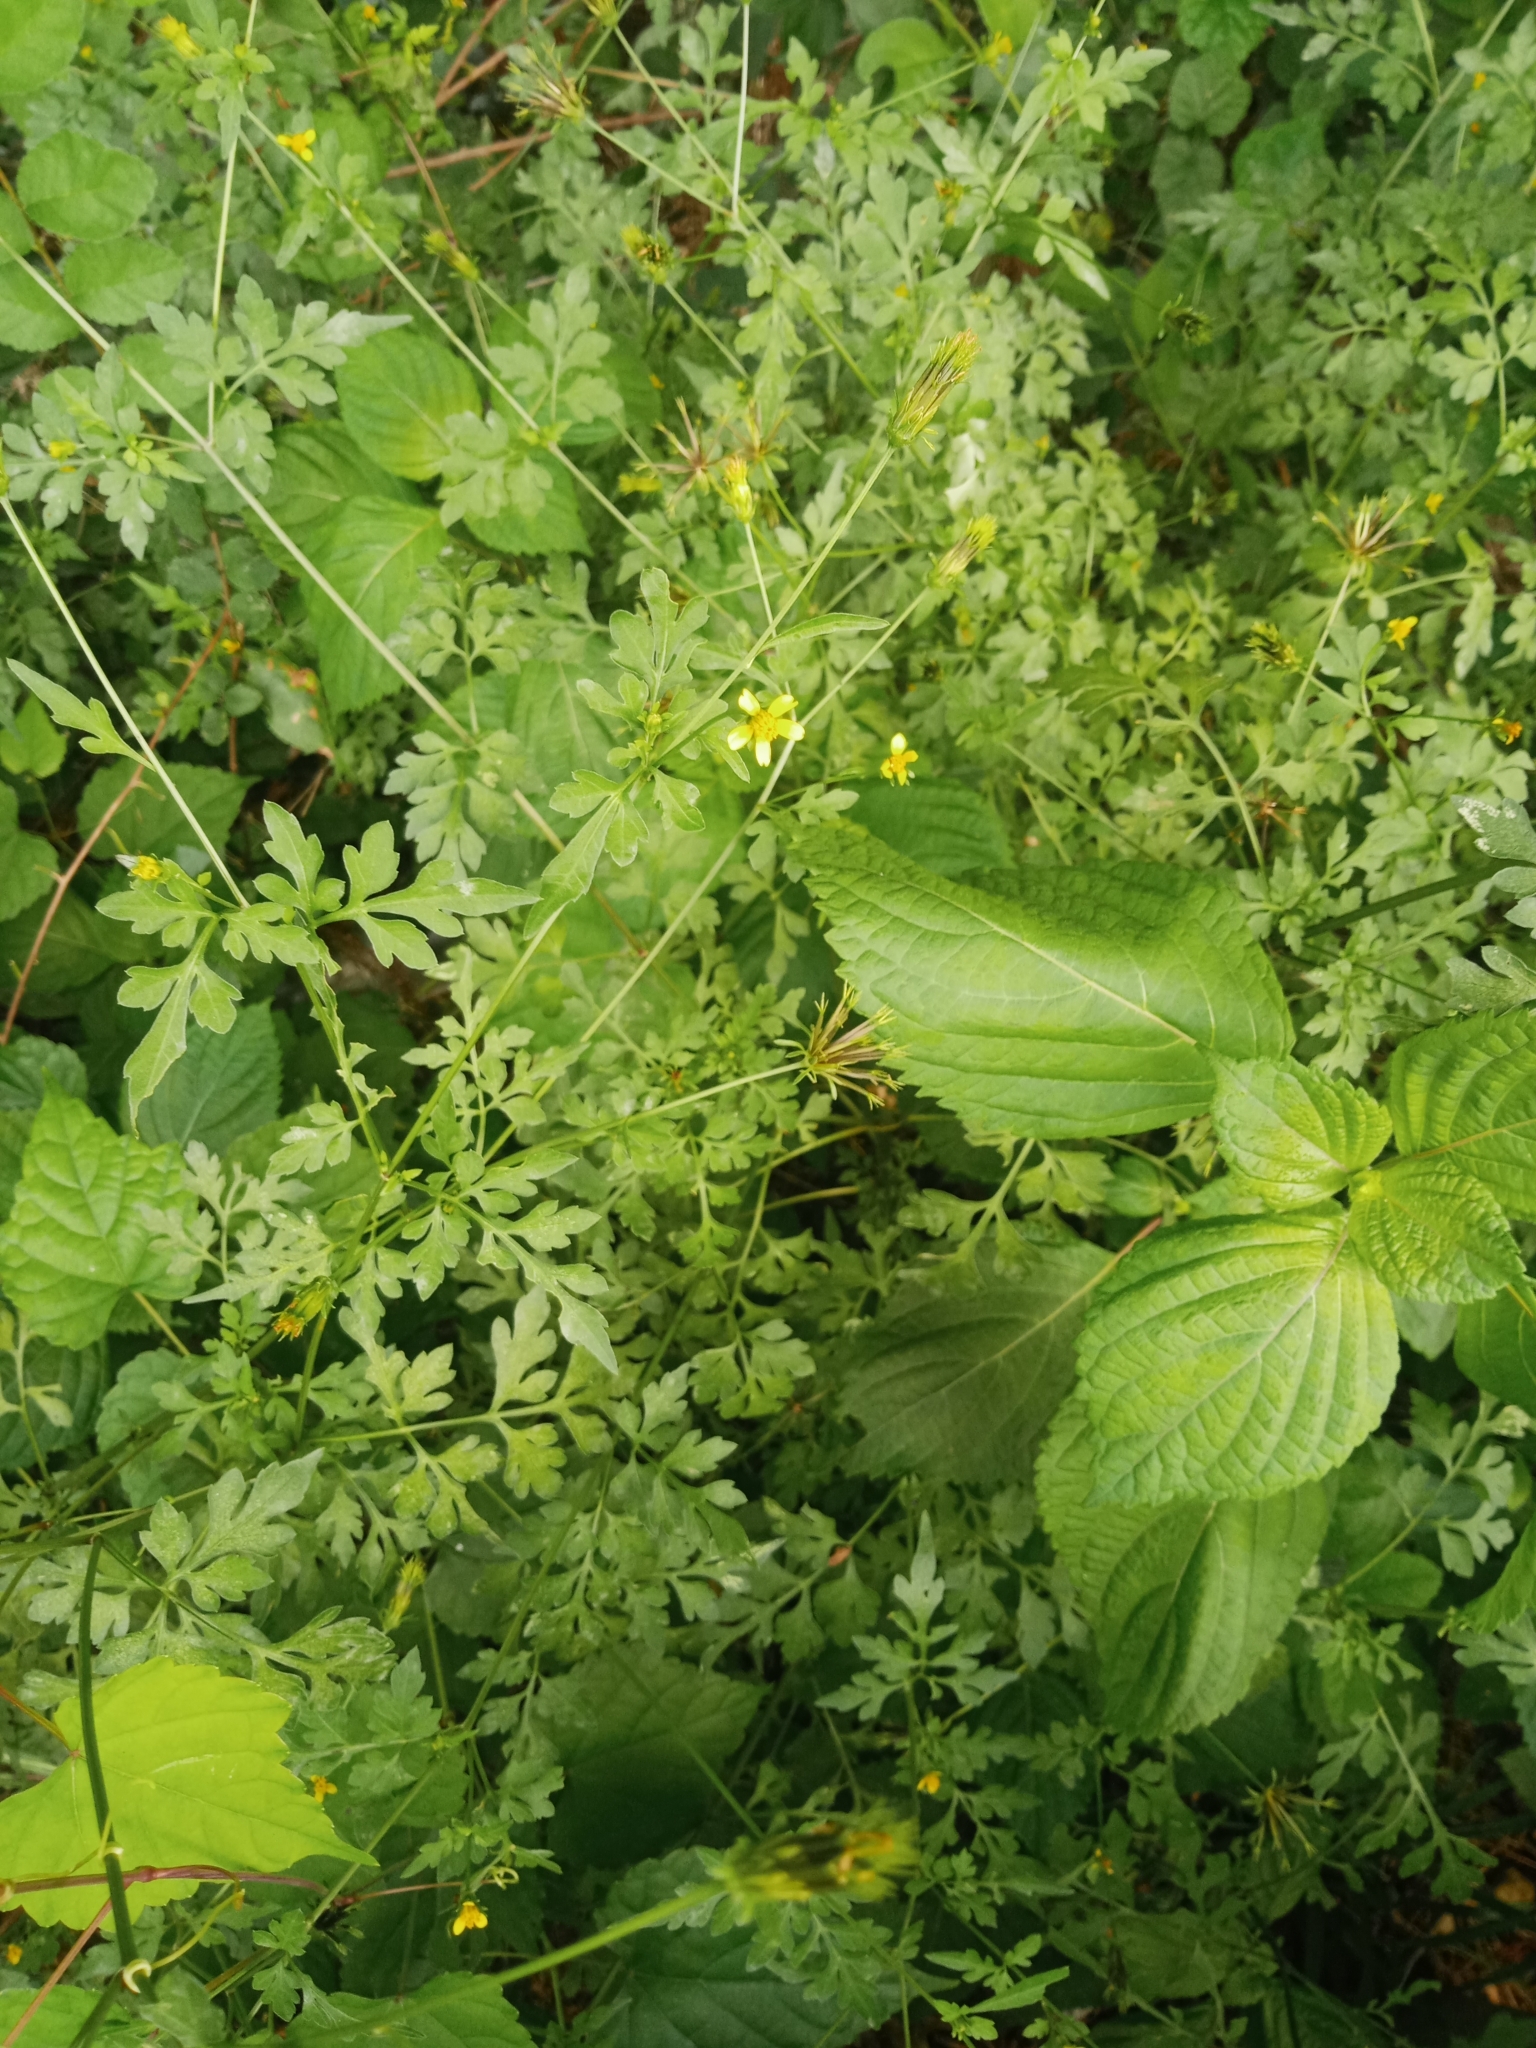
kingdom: Plantae
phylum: Tracheophyta
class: Magnoliopsida
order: Asterales
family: Asteraceae
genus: Bidens
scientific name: Bidens bipinnata
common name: Spanish-needles
